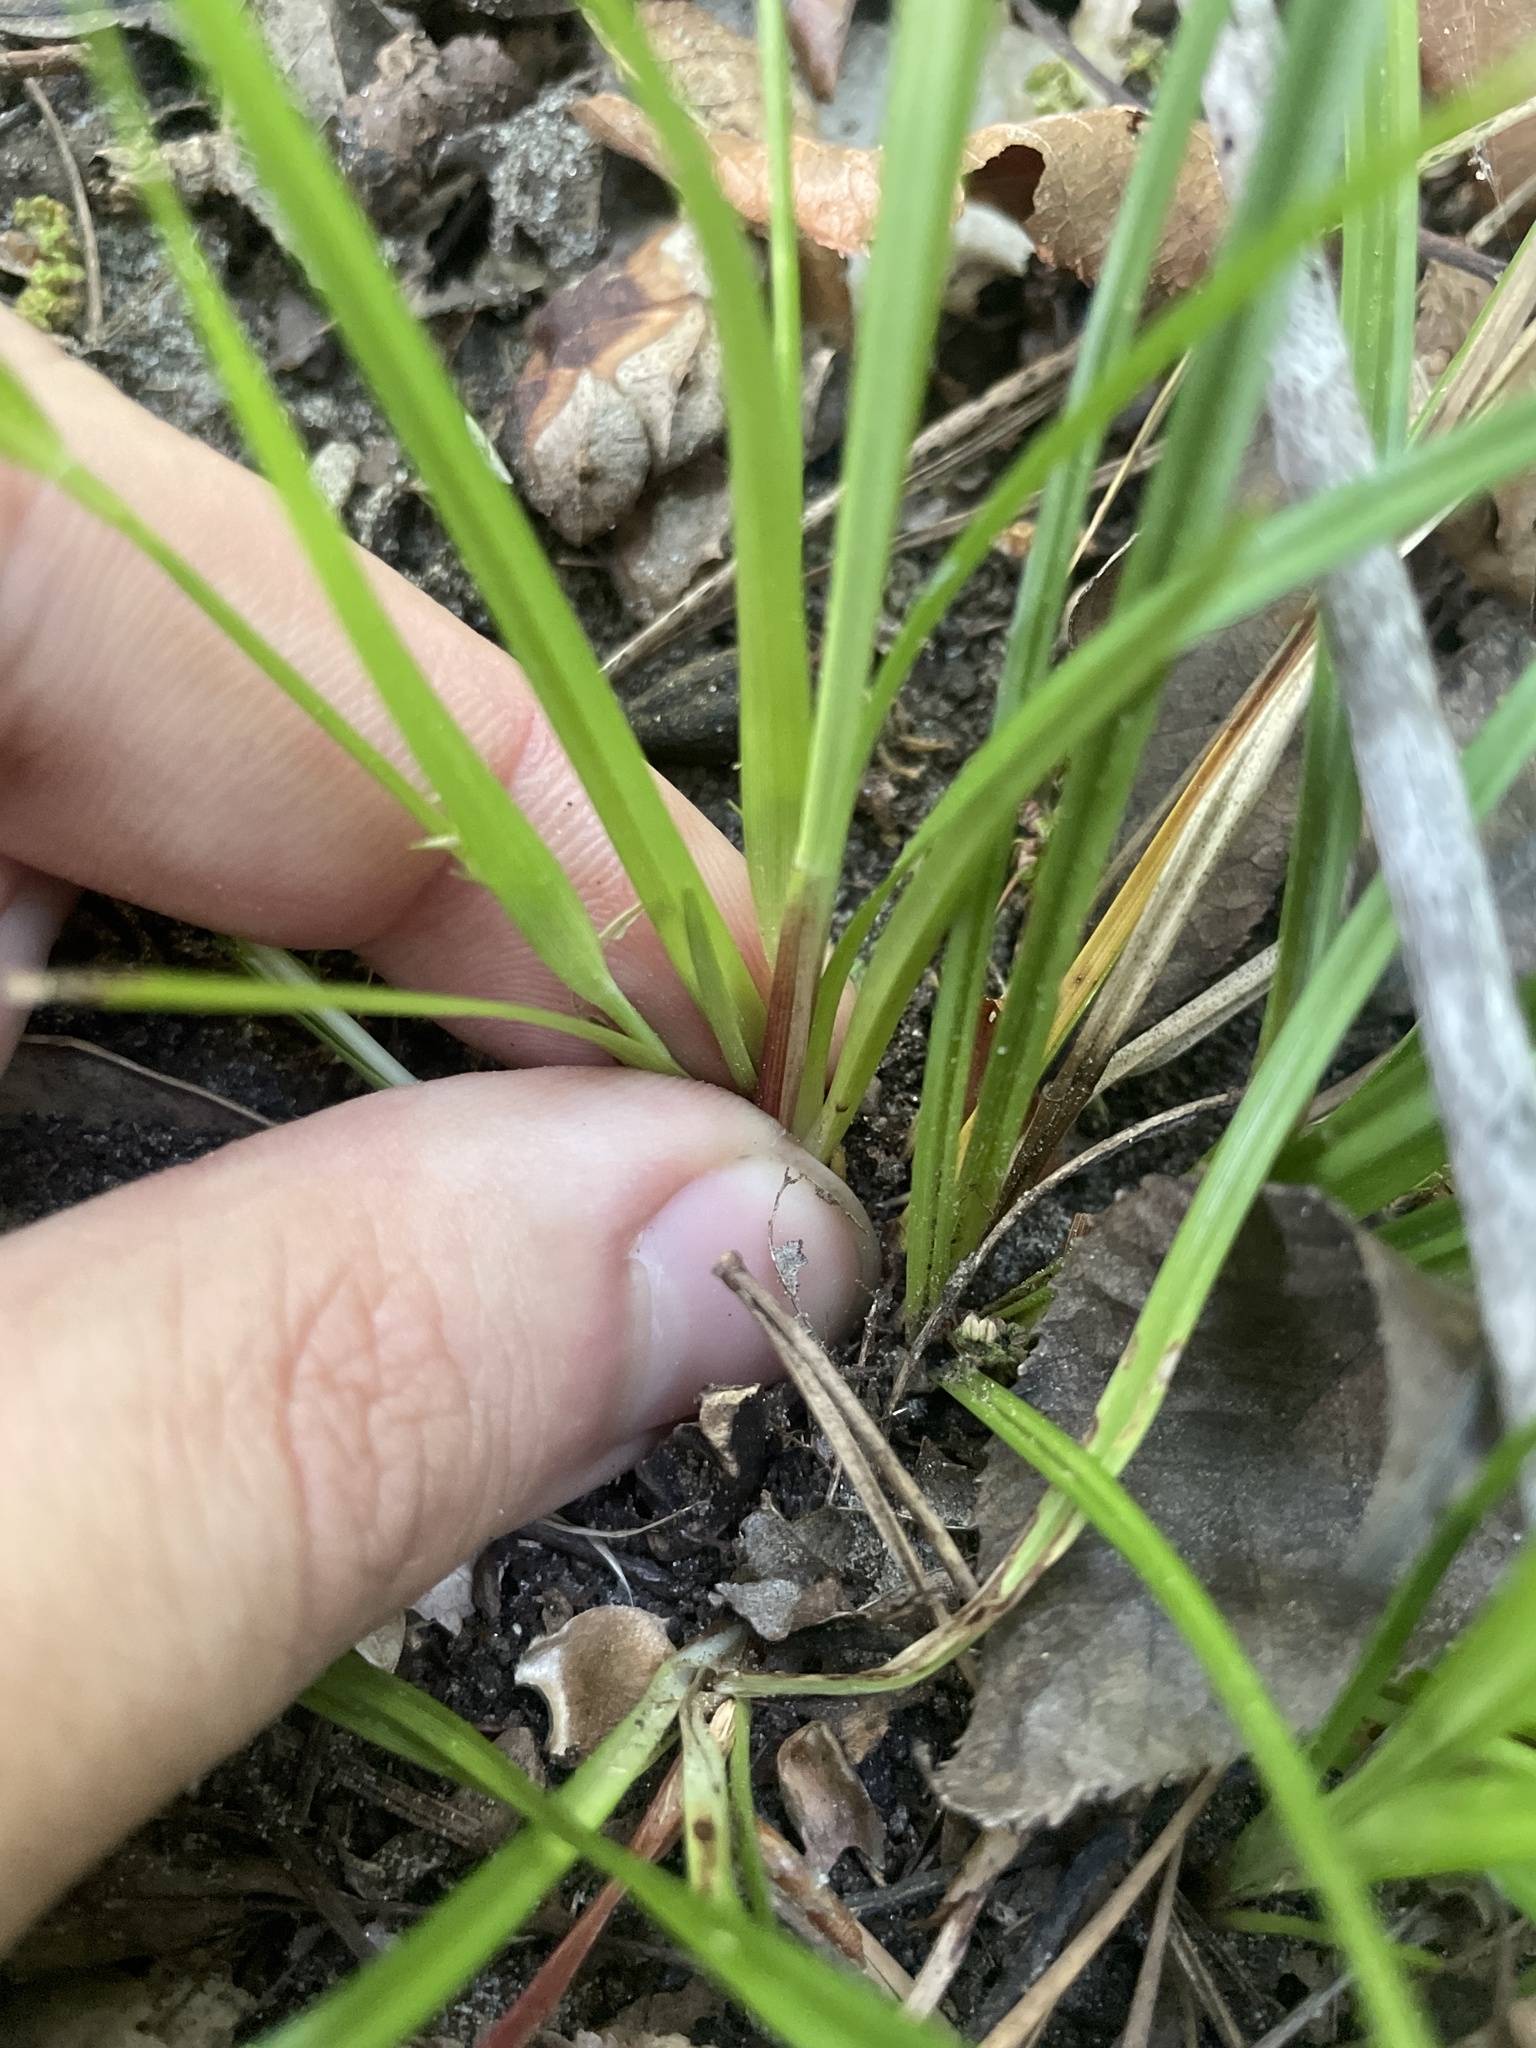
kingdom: Plantae
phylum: Tracheophyta
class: Liliopsida
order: Poales
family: Cyperaceae
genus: Carex
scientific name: Carex calcifugens
